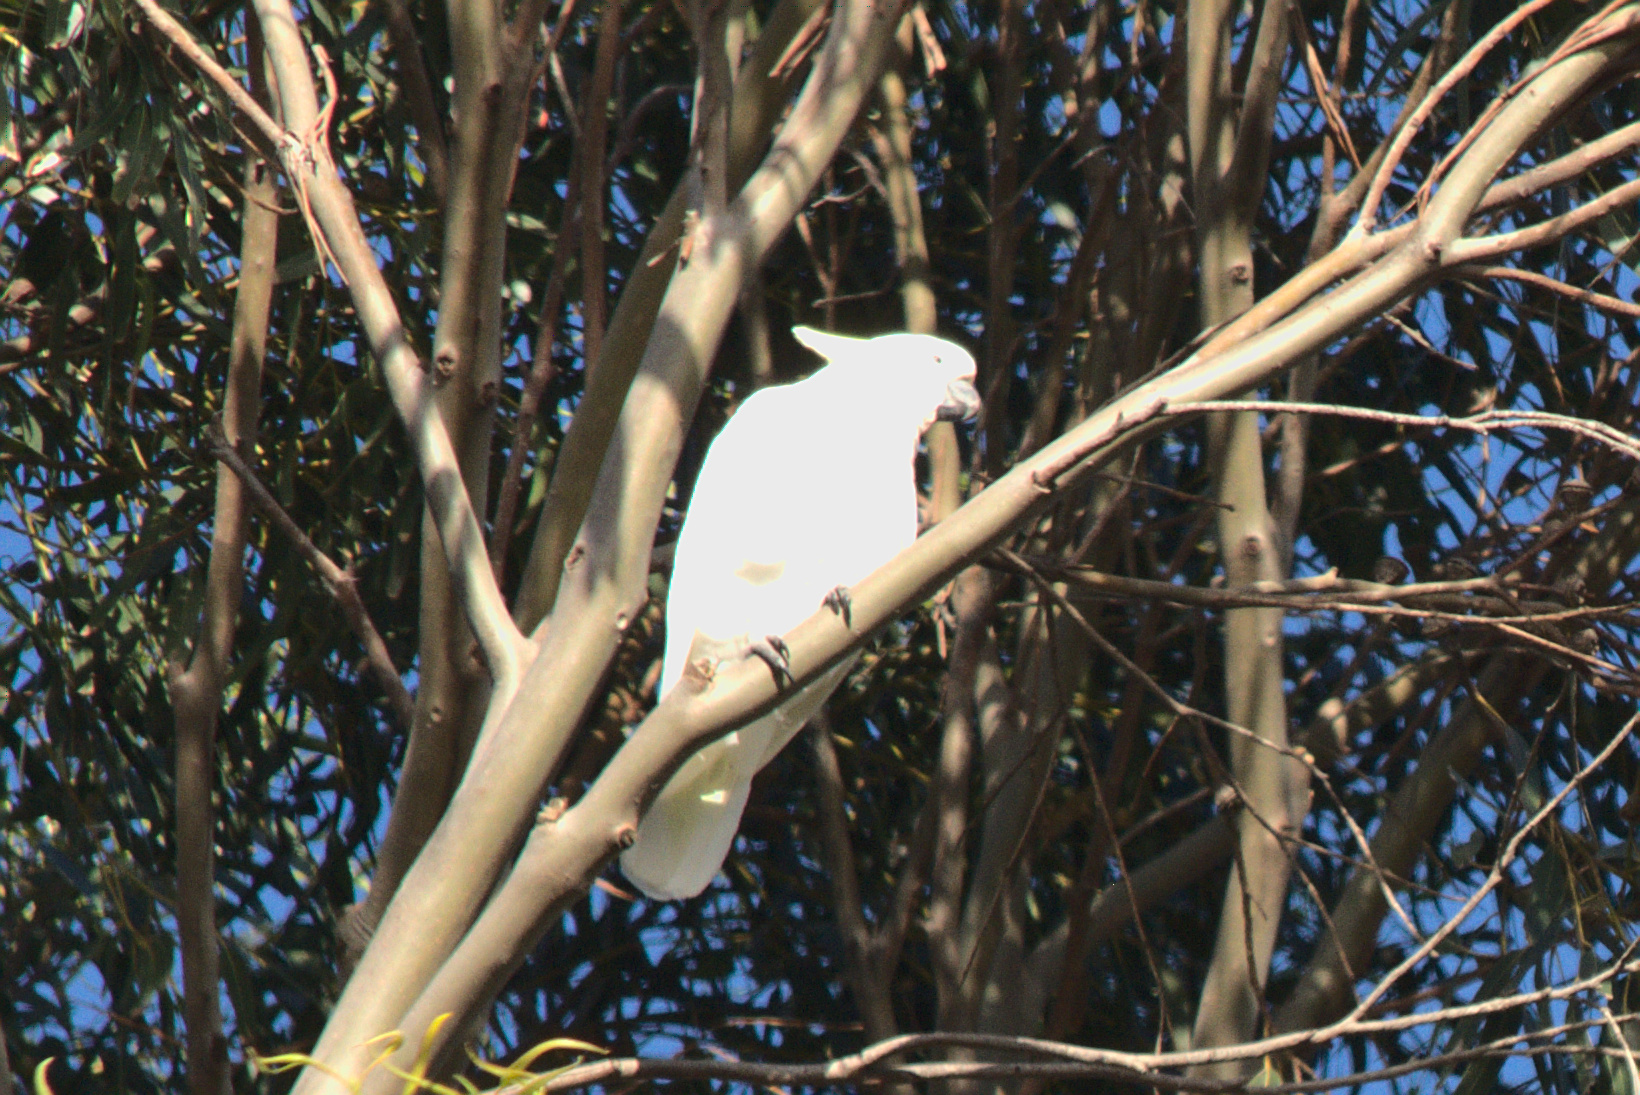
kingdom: Animalia
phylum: Chordata
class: Aves
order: Psittaciformes
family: Psittacidae
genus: Cacatua
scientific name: Cacatua galerita
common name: Sulphur-crested cockatoo
